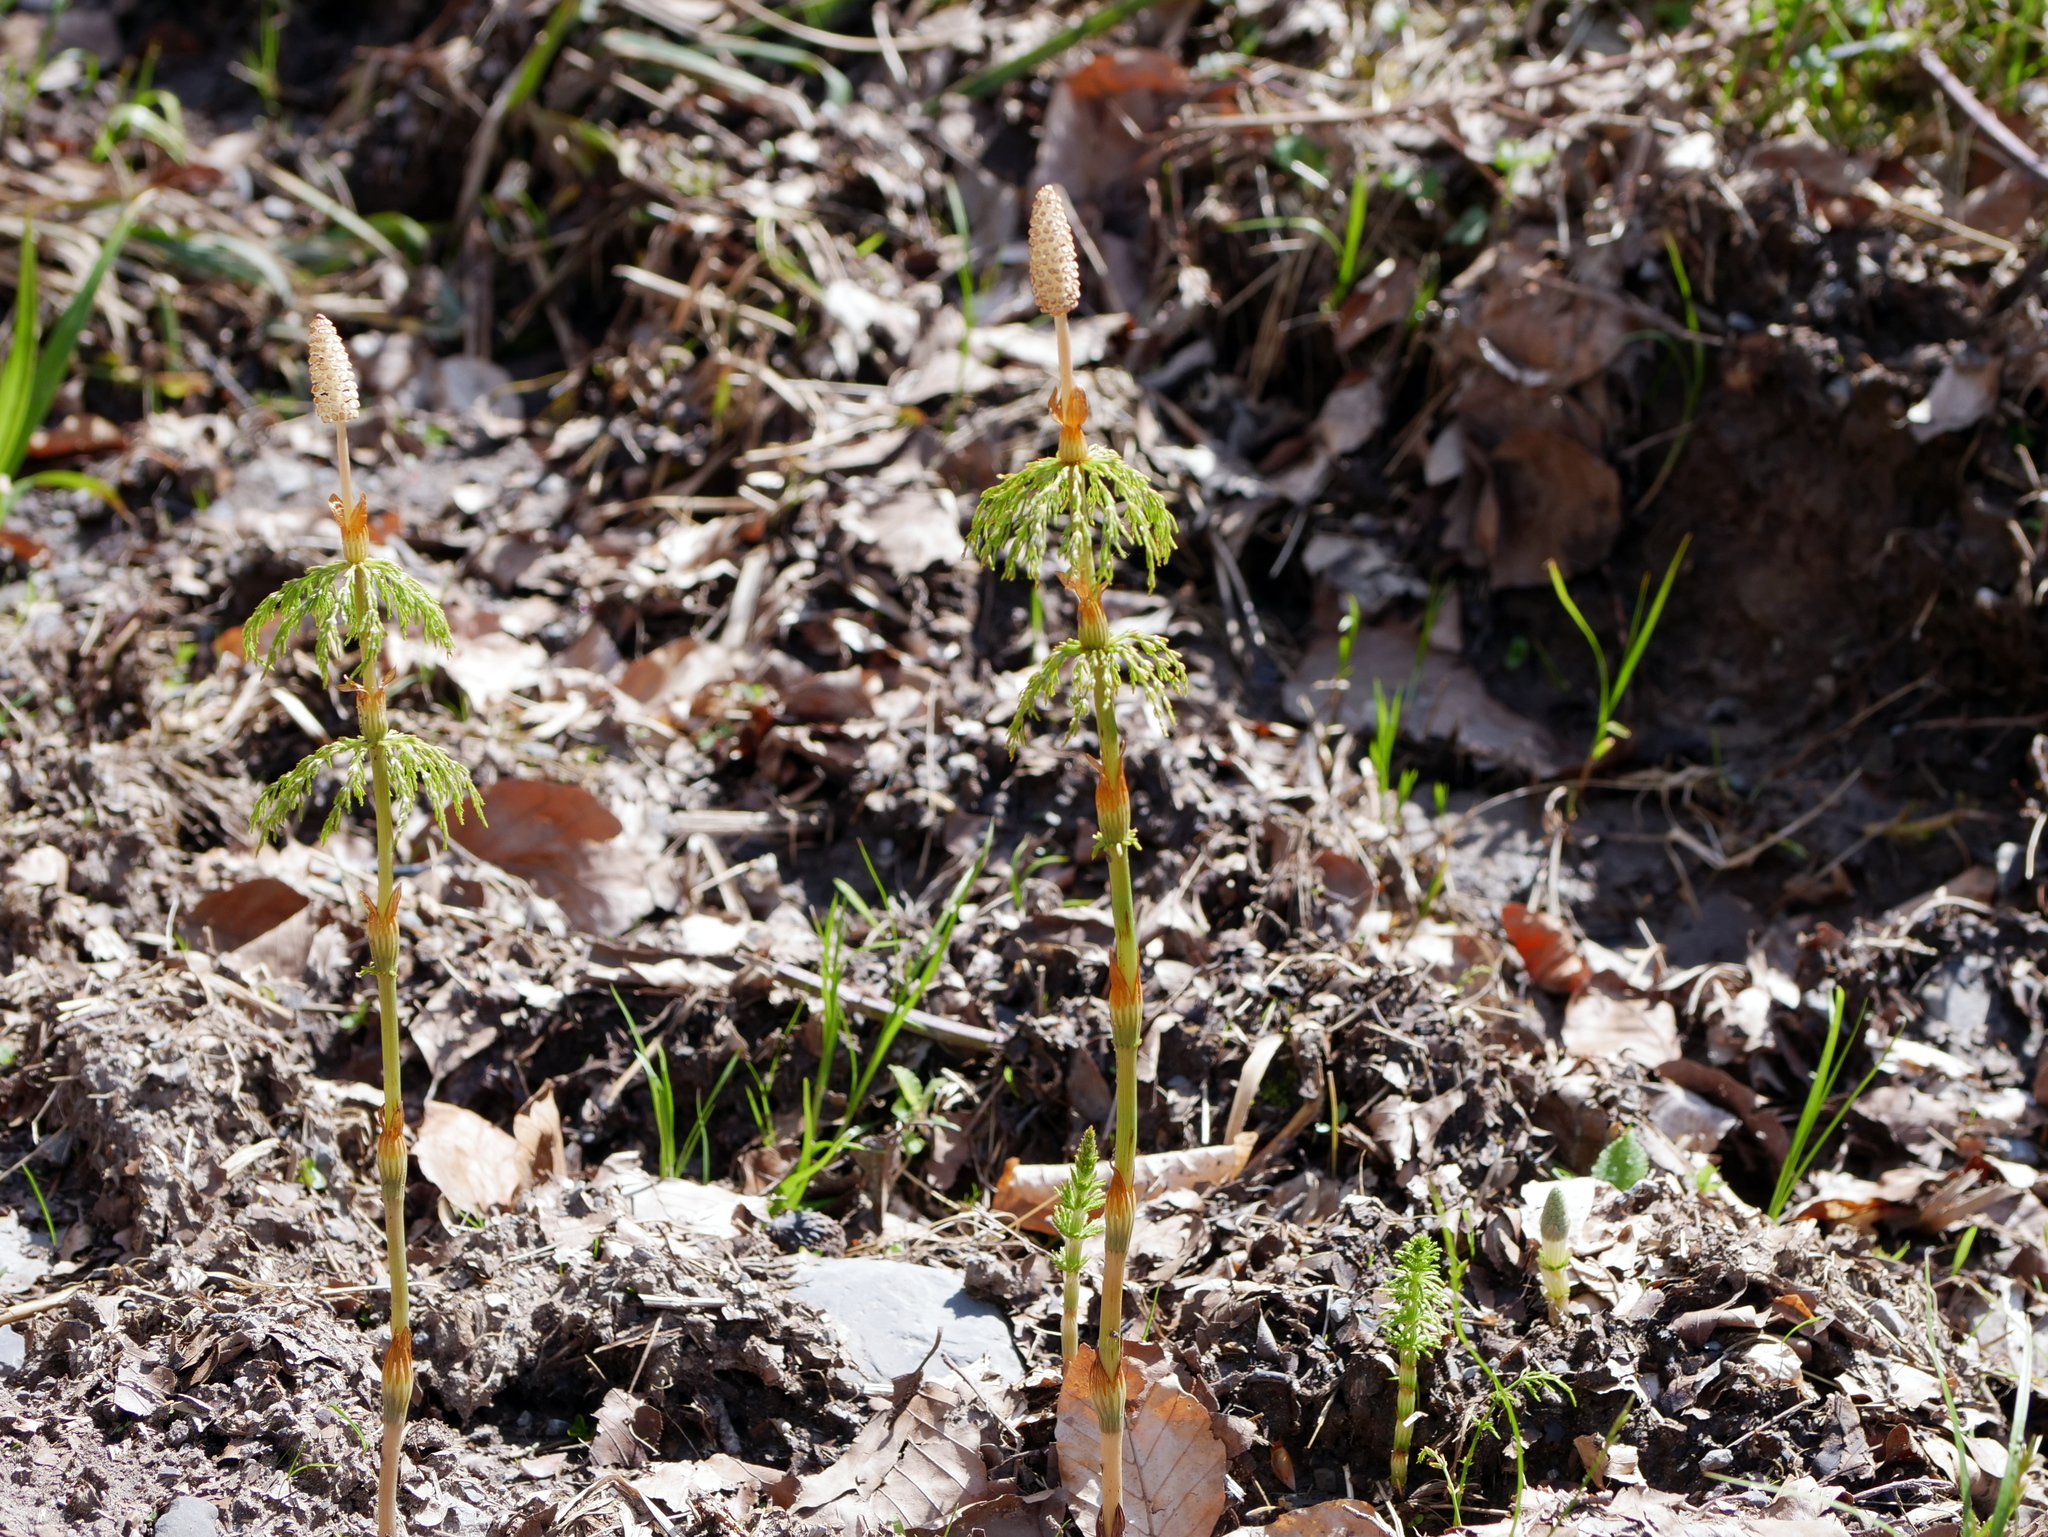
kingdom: Plantae
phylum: Tracheophyta
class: Polypodiopsida
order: Equisetales
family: Equisetaceae
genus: Equisetum
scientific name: Equisetum sylvaticum
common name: Wood horsetail
